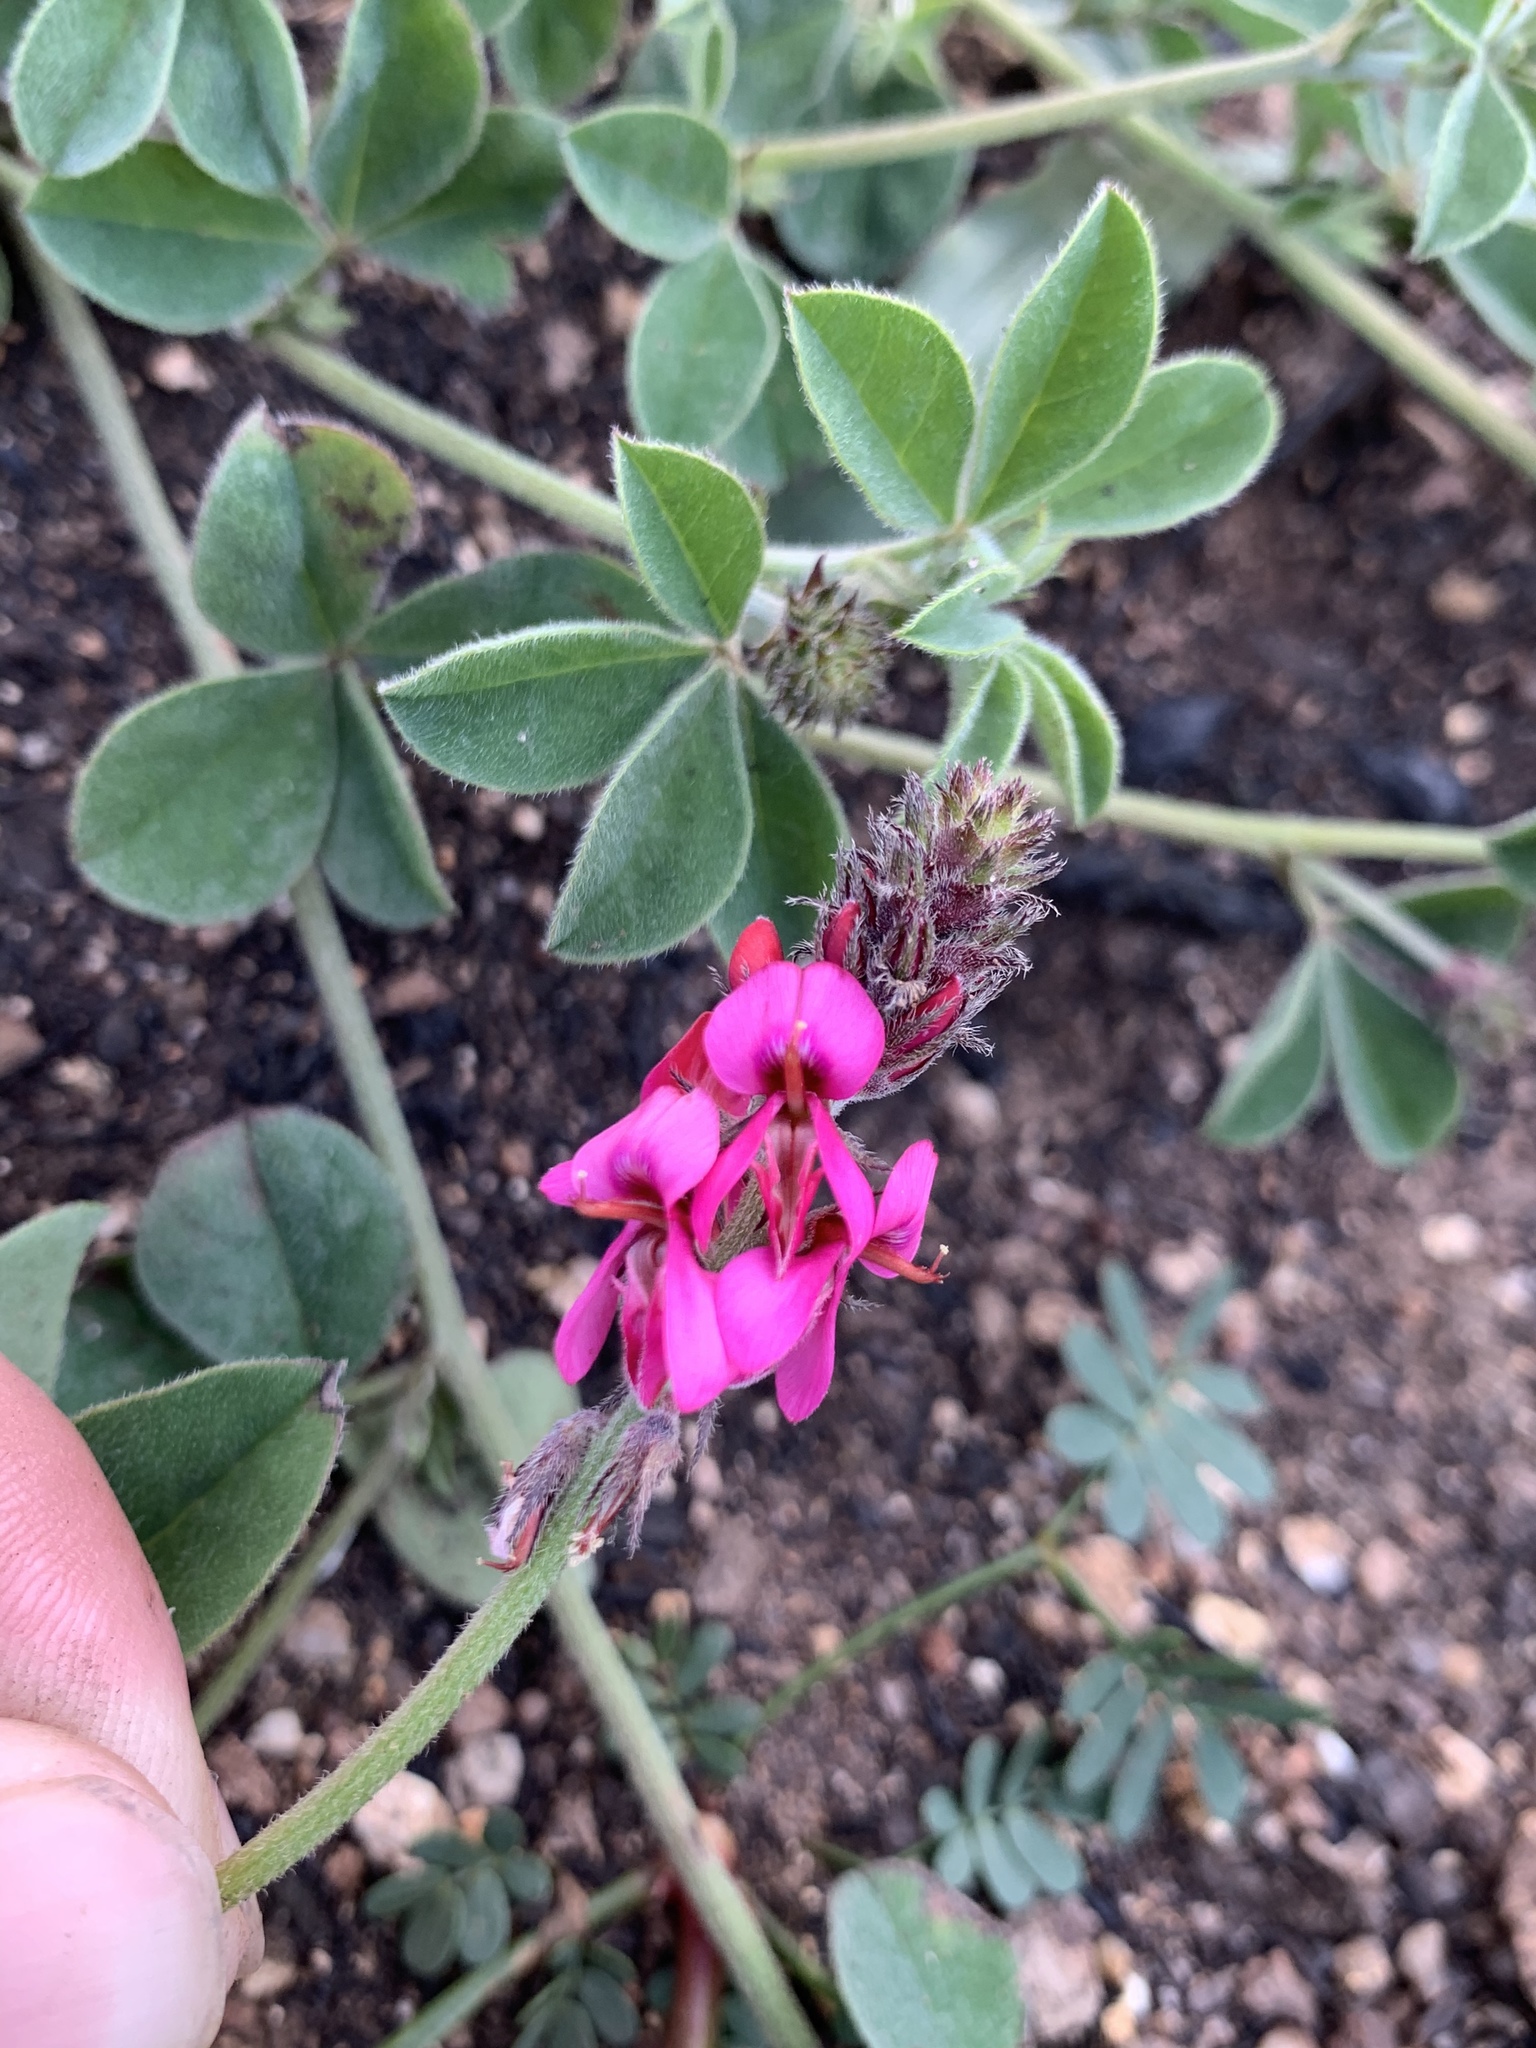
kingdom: Plantae
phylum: Tracheophyta
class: Magnoliopsida
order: Fabales
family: Fabaceae
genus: Indigofera
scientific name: Indigofera incana
